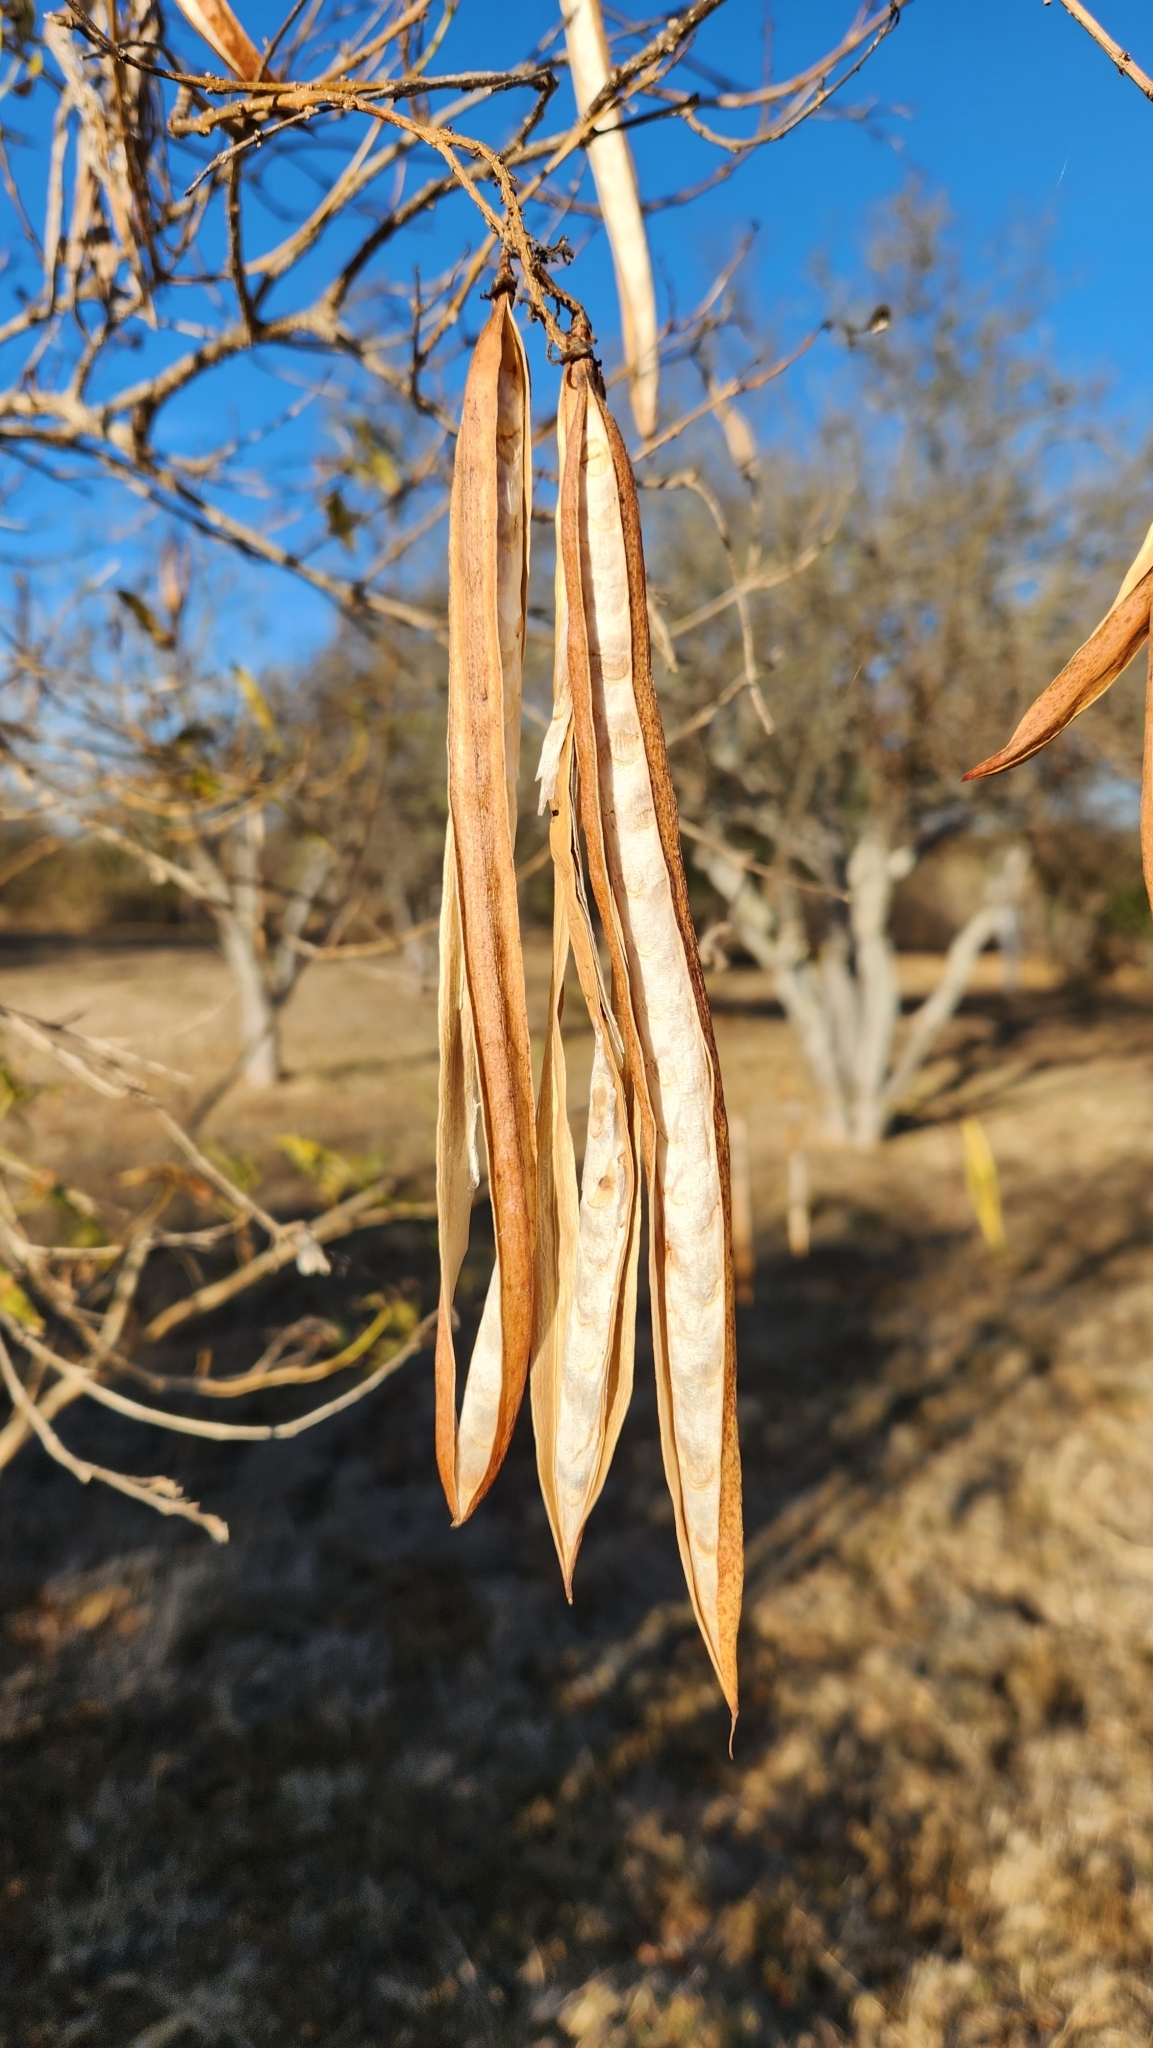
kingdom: Plantae
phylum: Tracheophyta
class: Magnoliopsida
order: Lamiales
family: Bignoniaceae
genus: Tecoma
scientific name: Tecoma stans
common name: Yellow trumpetbush
